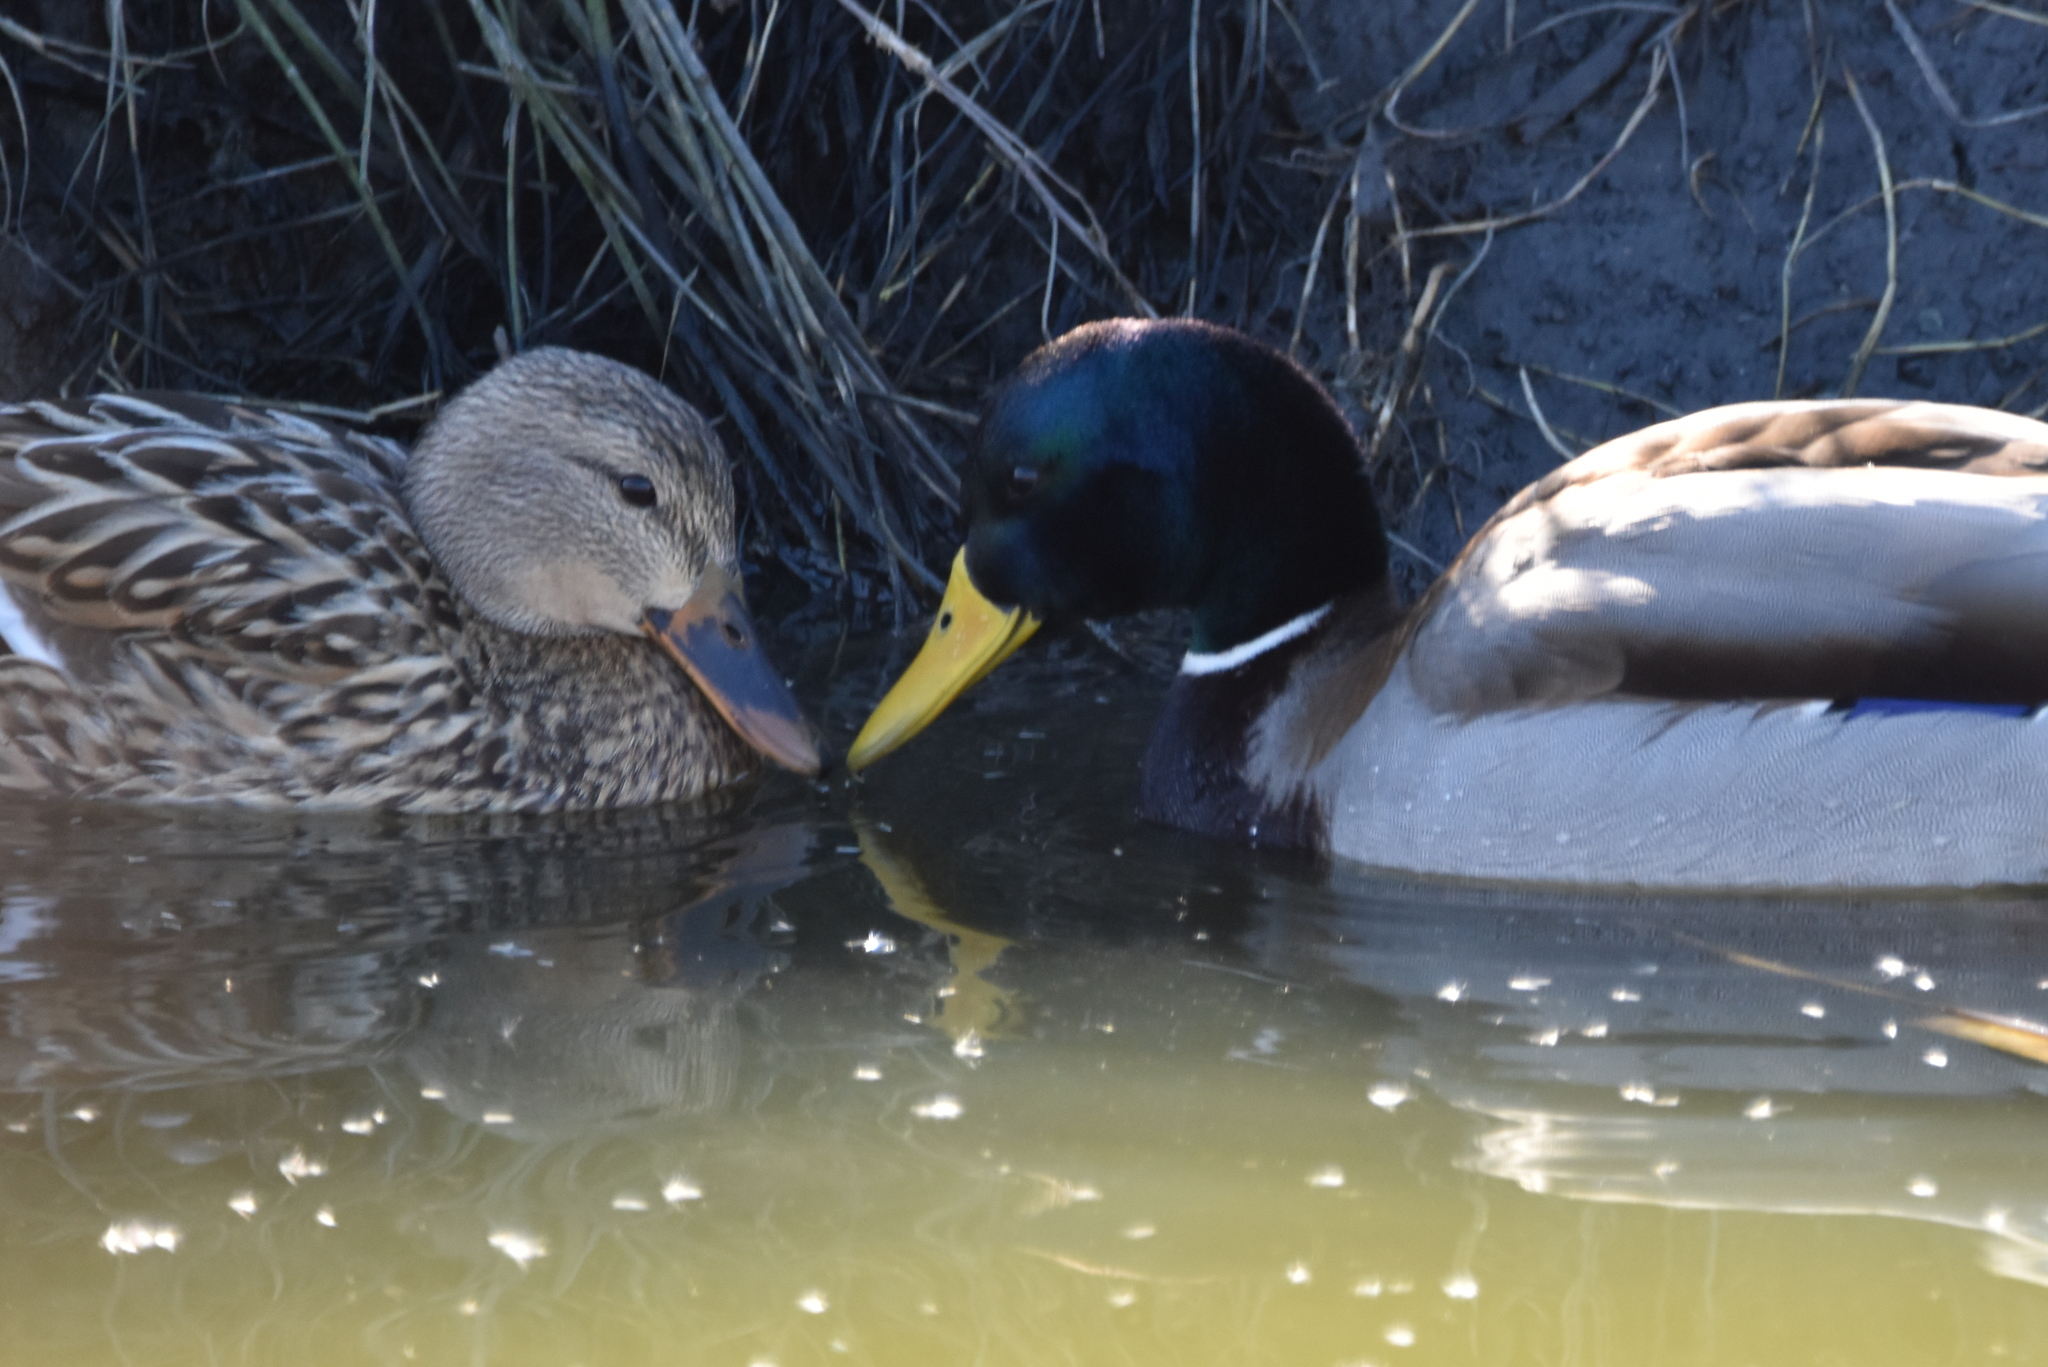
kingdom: Animalia
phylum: Chordata
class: Aves
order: Anseriformes
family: Anatidae
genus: Anas
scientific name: Anas platyrhynchos
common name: Mallard
